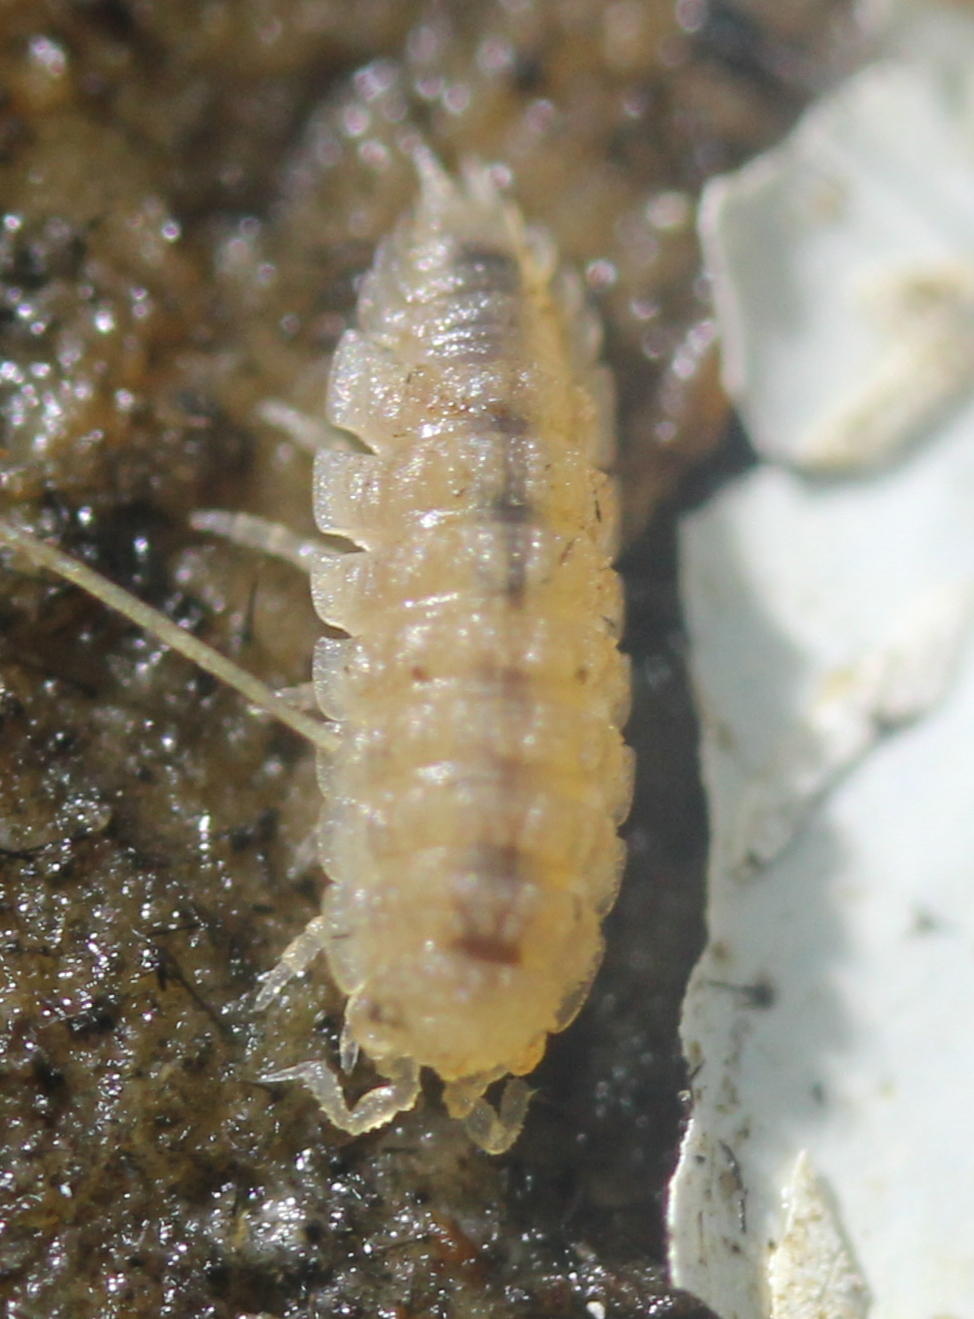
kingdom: Animalia
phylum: Arthropoda
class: Malacostraca
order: Isopoda
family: Trichoniscidae
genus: Haplophthalmus
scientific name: Haplophthalmus danicus
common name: Pillbug
